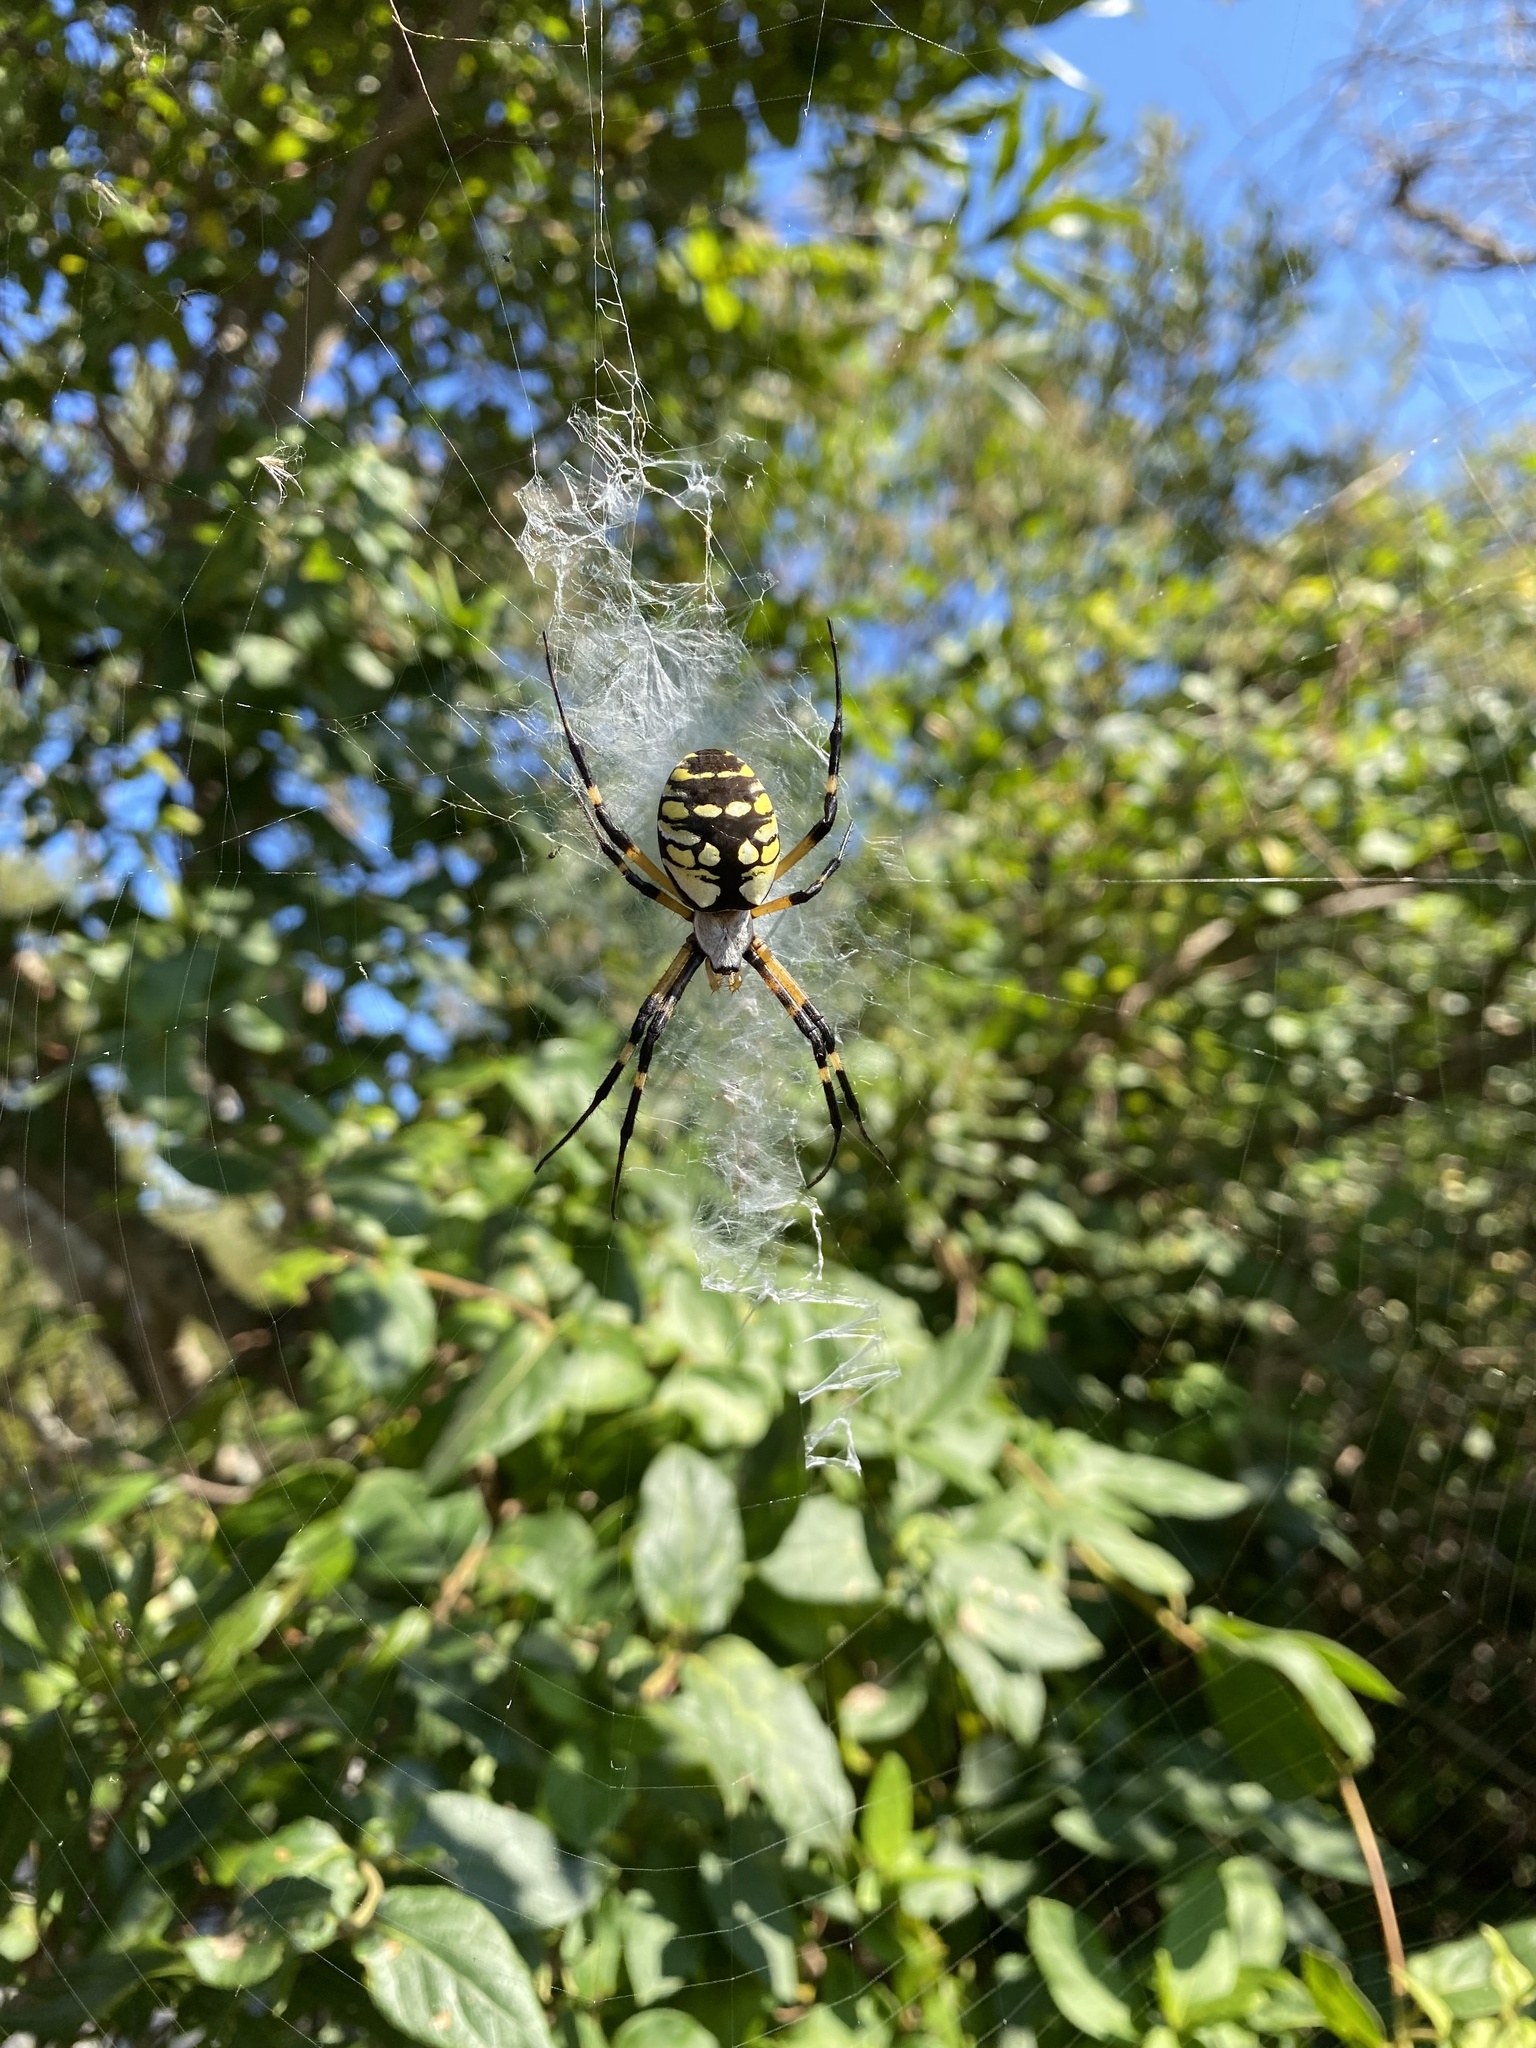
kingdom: Animalia
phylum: Arthropoda
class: Arachnida
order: Araneae
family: Araneidae
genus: Argiope
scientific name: Argiope aurantia
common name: Orb weavers
